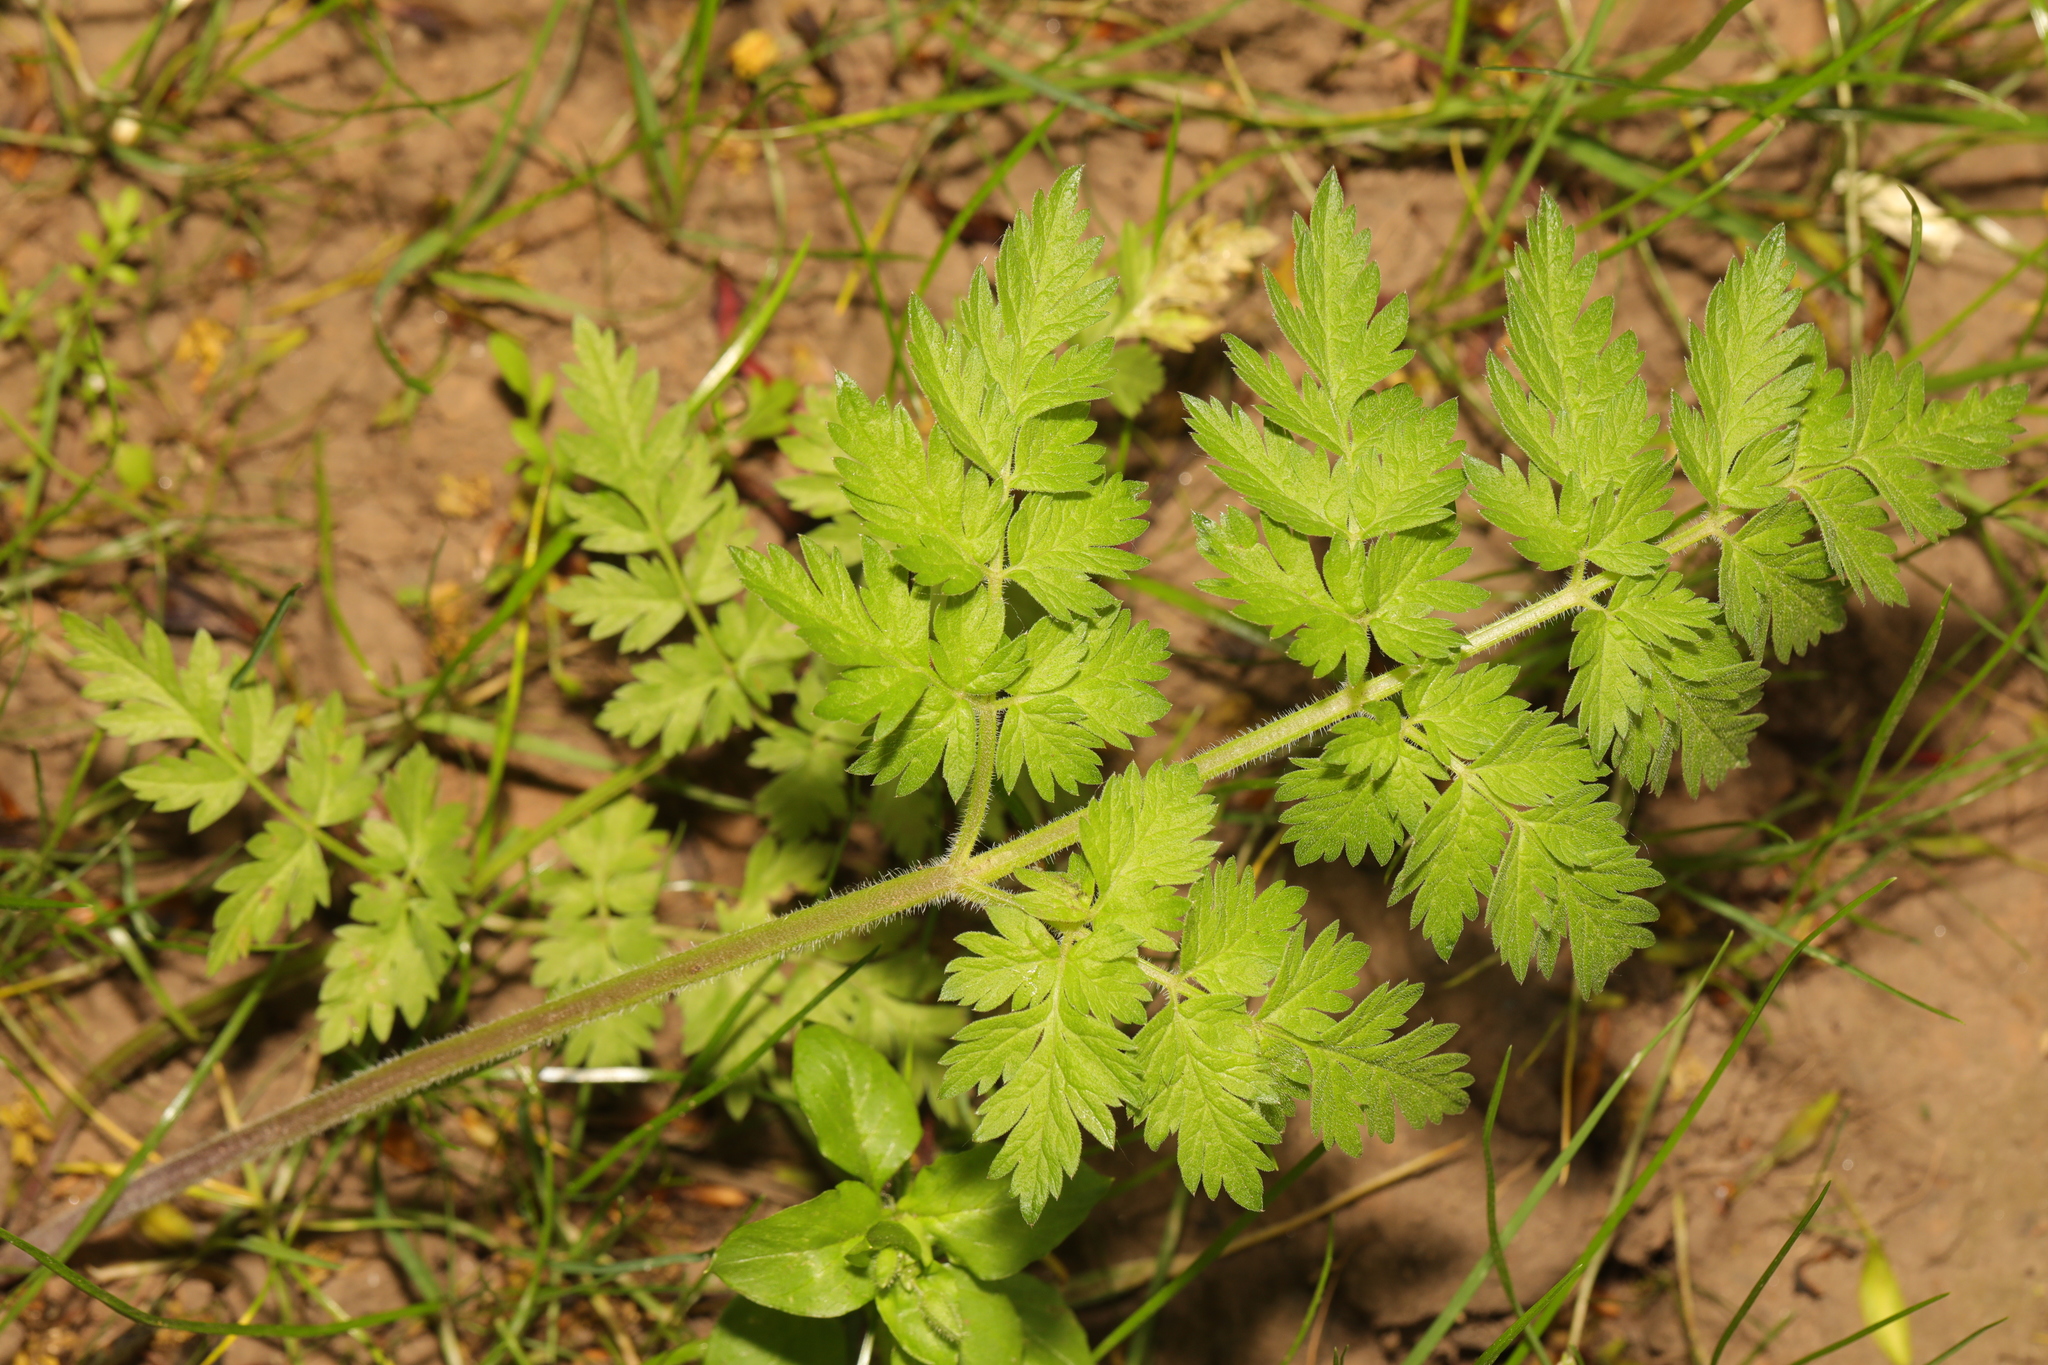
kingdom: Plantae
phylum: Tracheophyta
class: Magnoliopsida
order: Apiales
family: Apiaceae
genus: Anthriscus
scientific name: Anthriscus sylvestris
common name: Cow parsley
